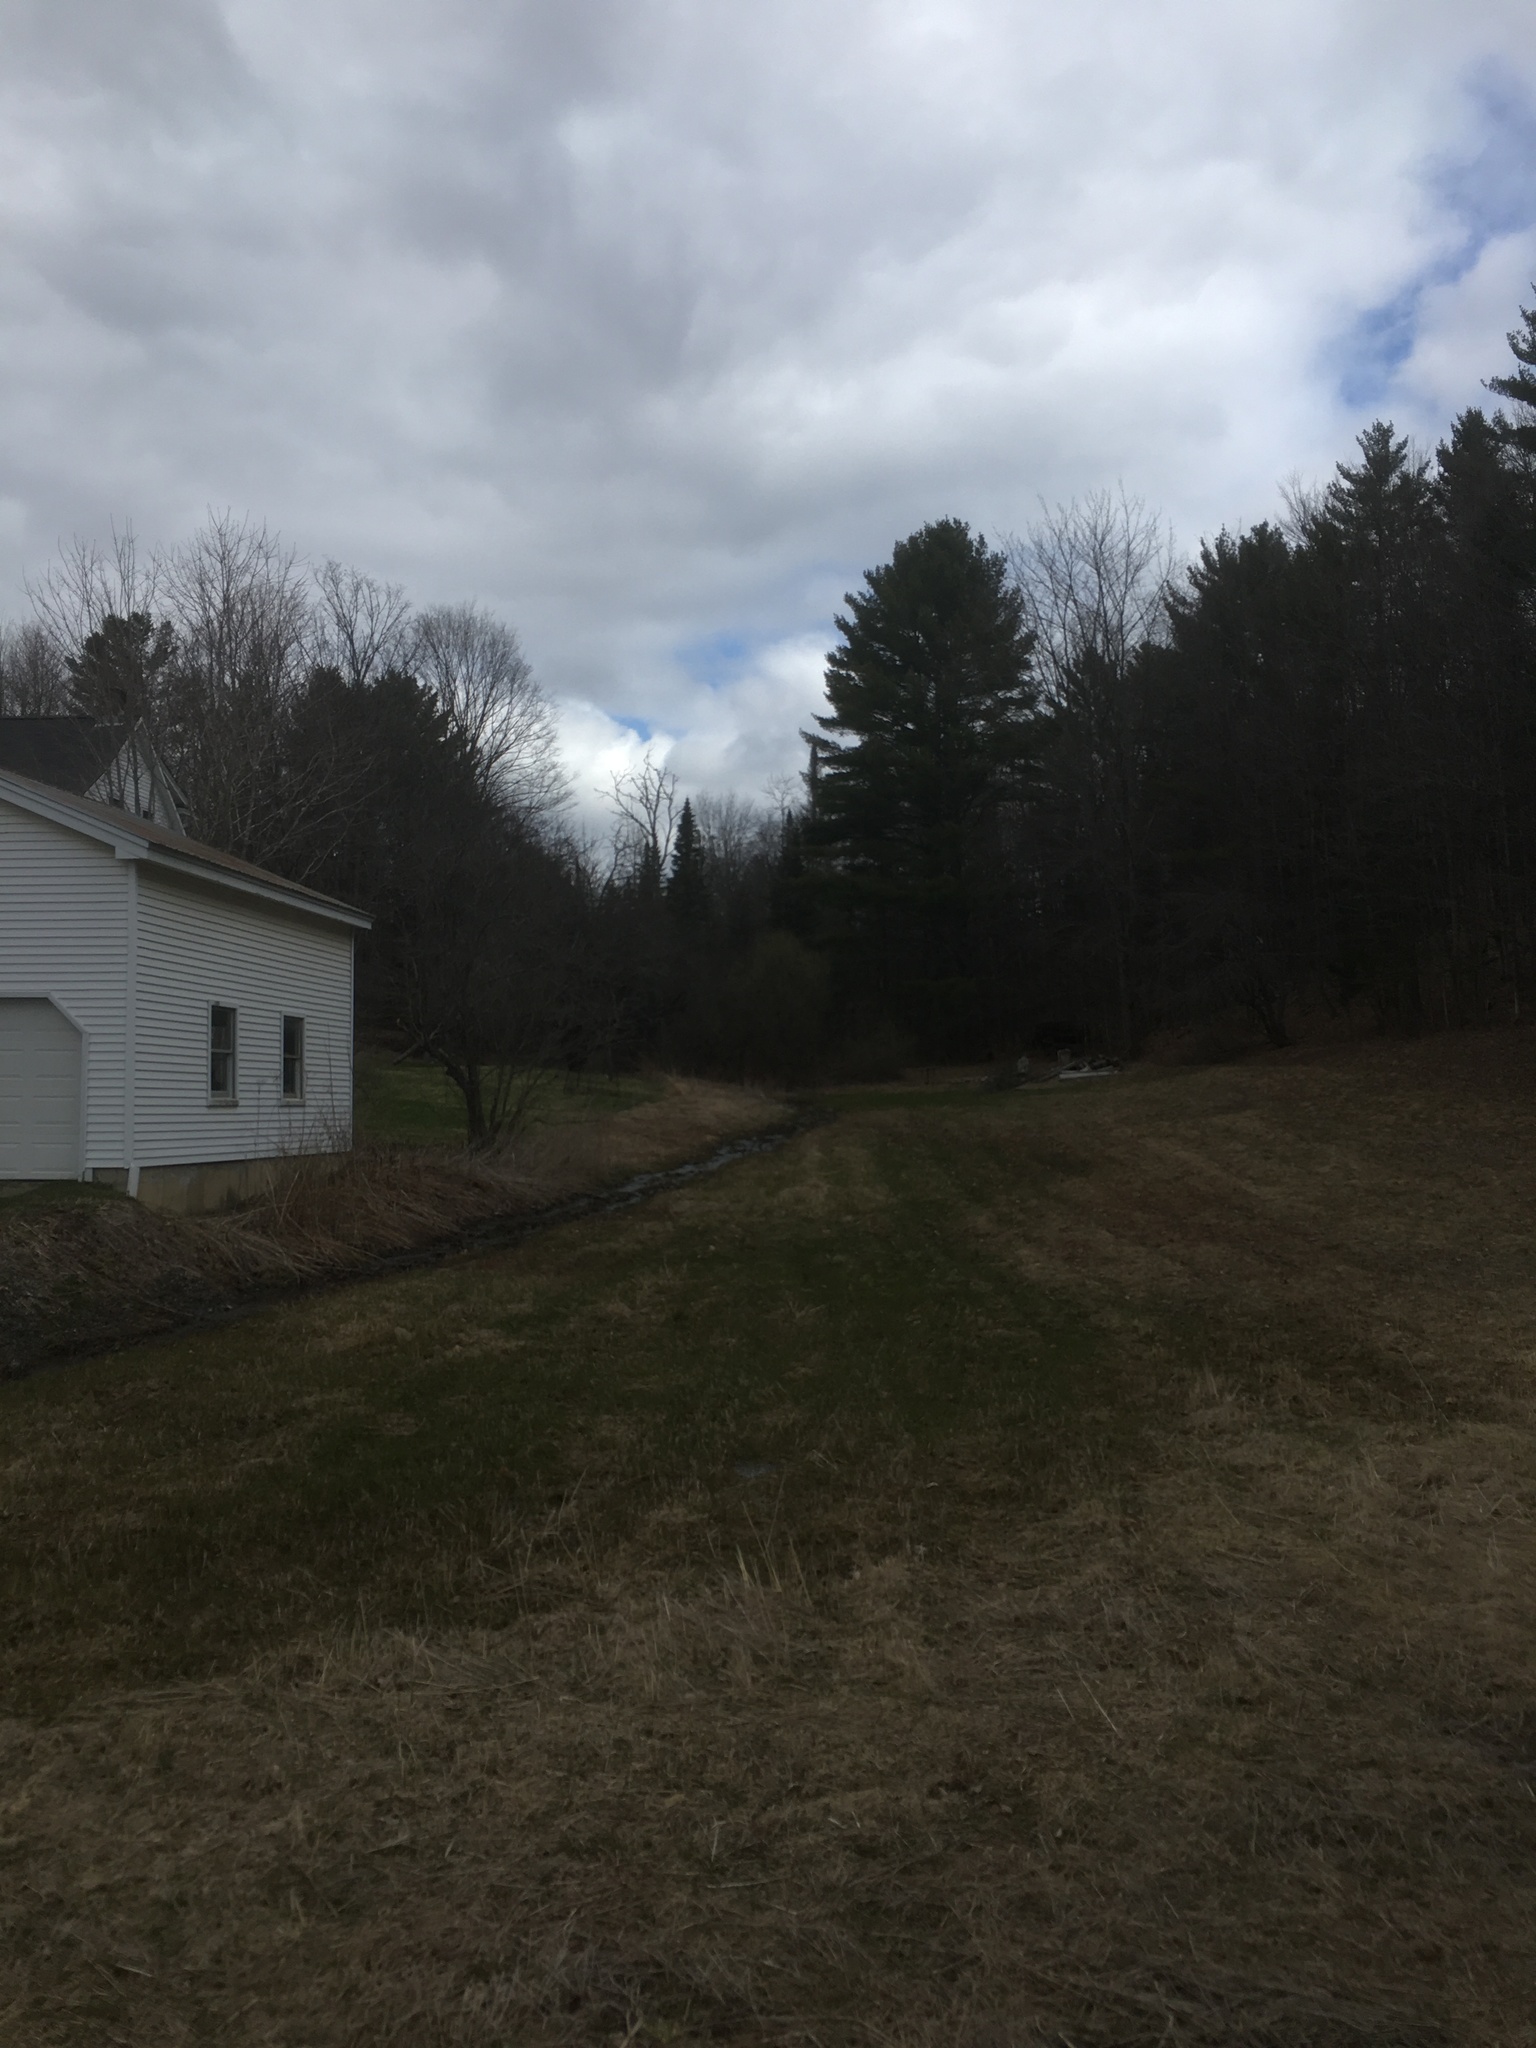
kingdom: Plantae
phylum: Tracheophyta
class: Pinopsida
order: Pinales
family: Pinaceae
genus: Pinus
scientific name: Pinus strobus
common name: Weymouth pine
